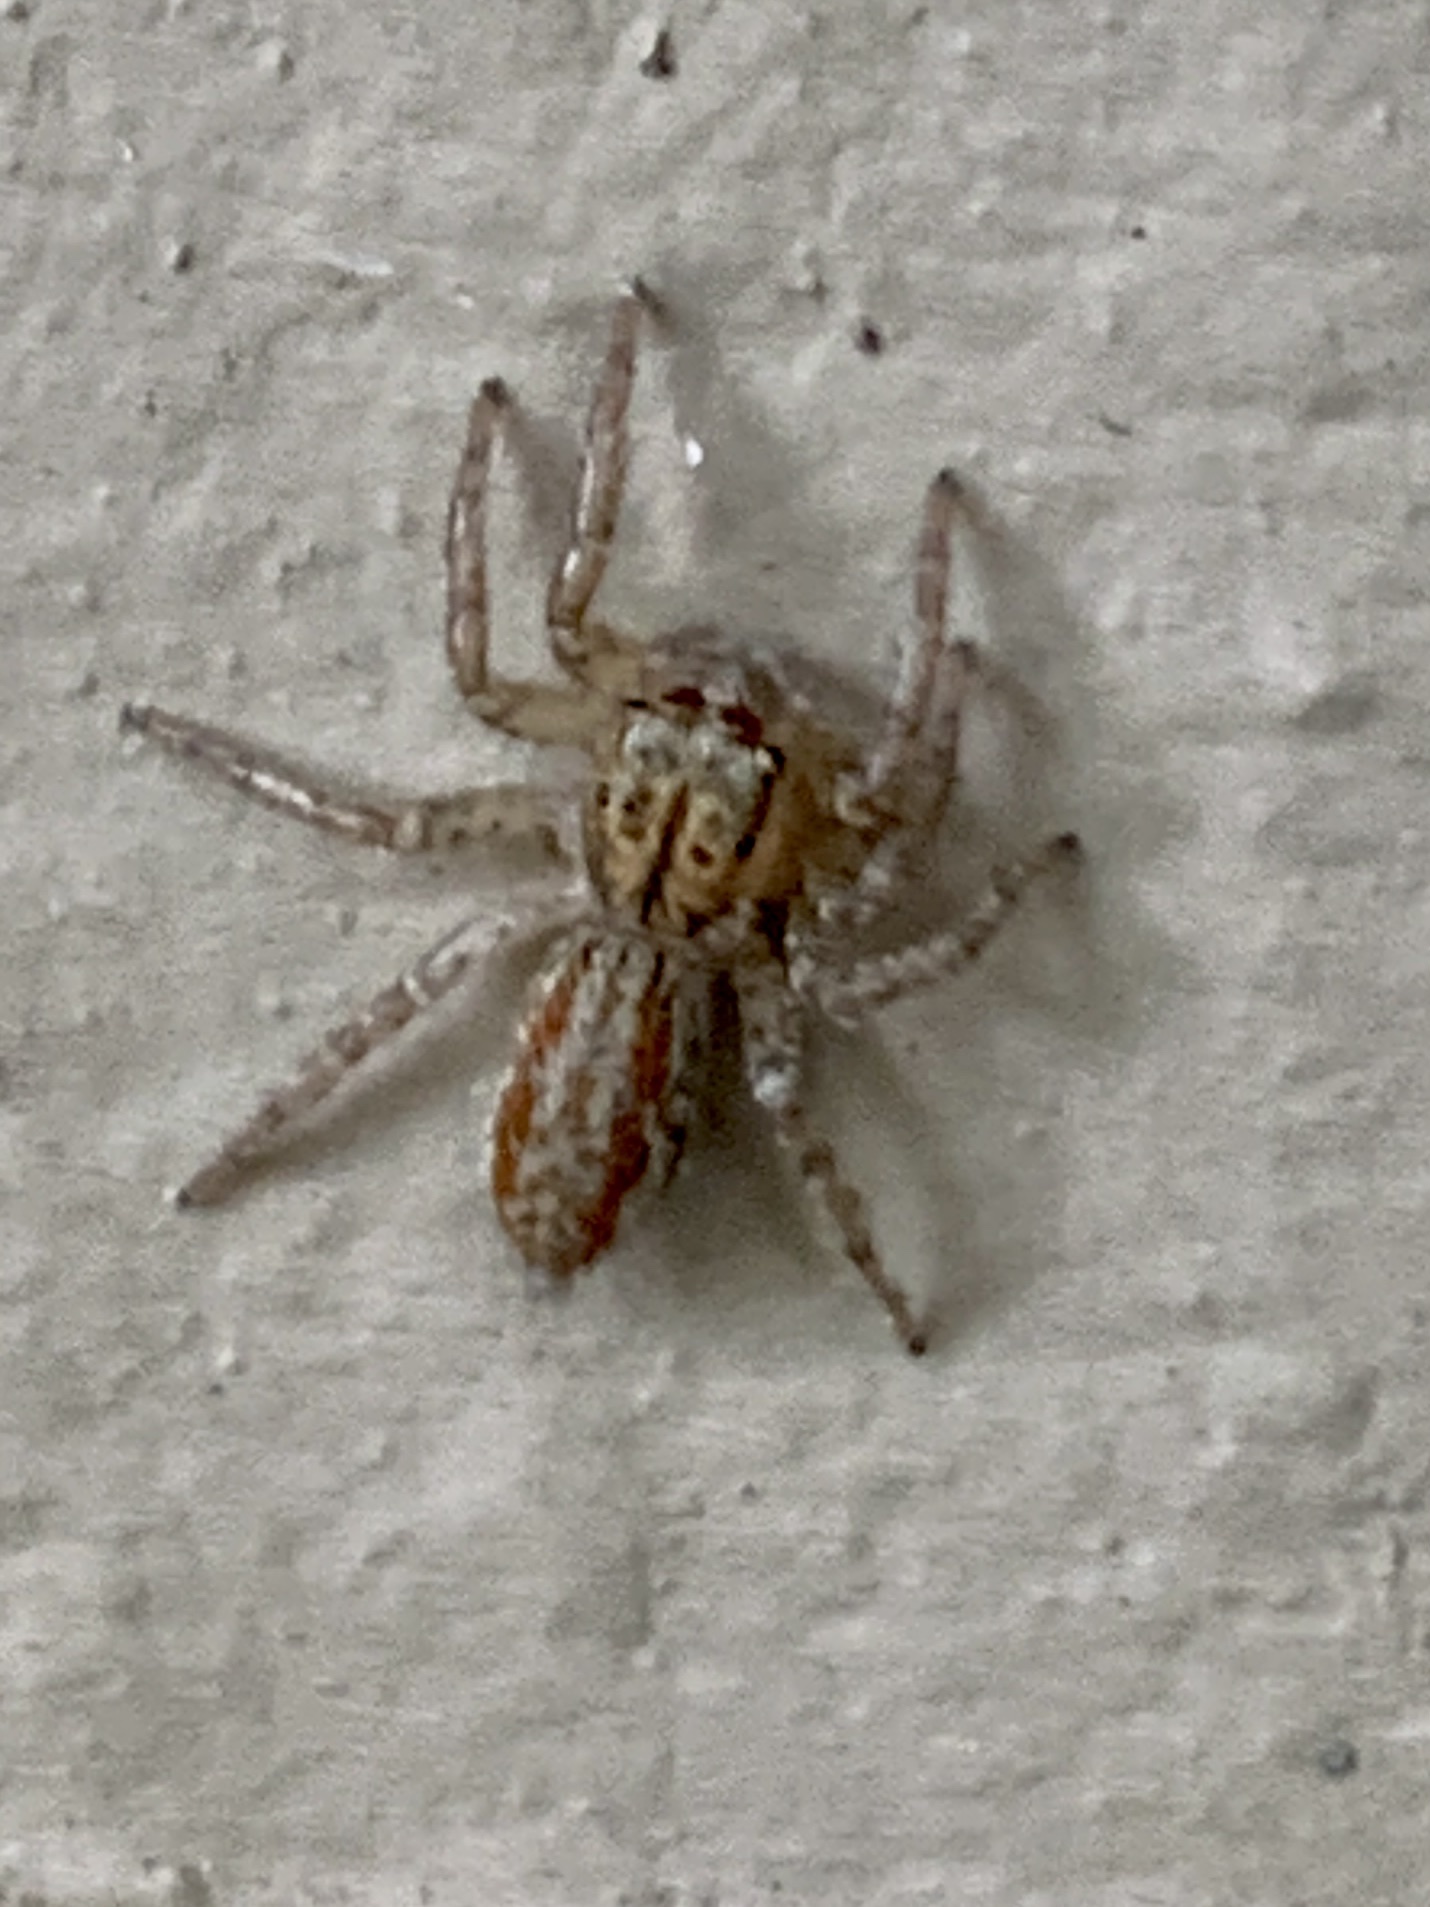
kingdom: Animalia
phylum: Arthropoda
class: Arachnida
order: Araneae
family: Salticidae
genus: Maevia
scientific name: Maevia inclemens
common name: Dimorphic jumper
